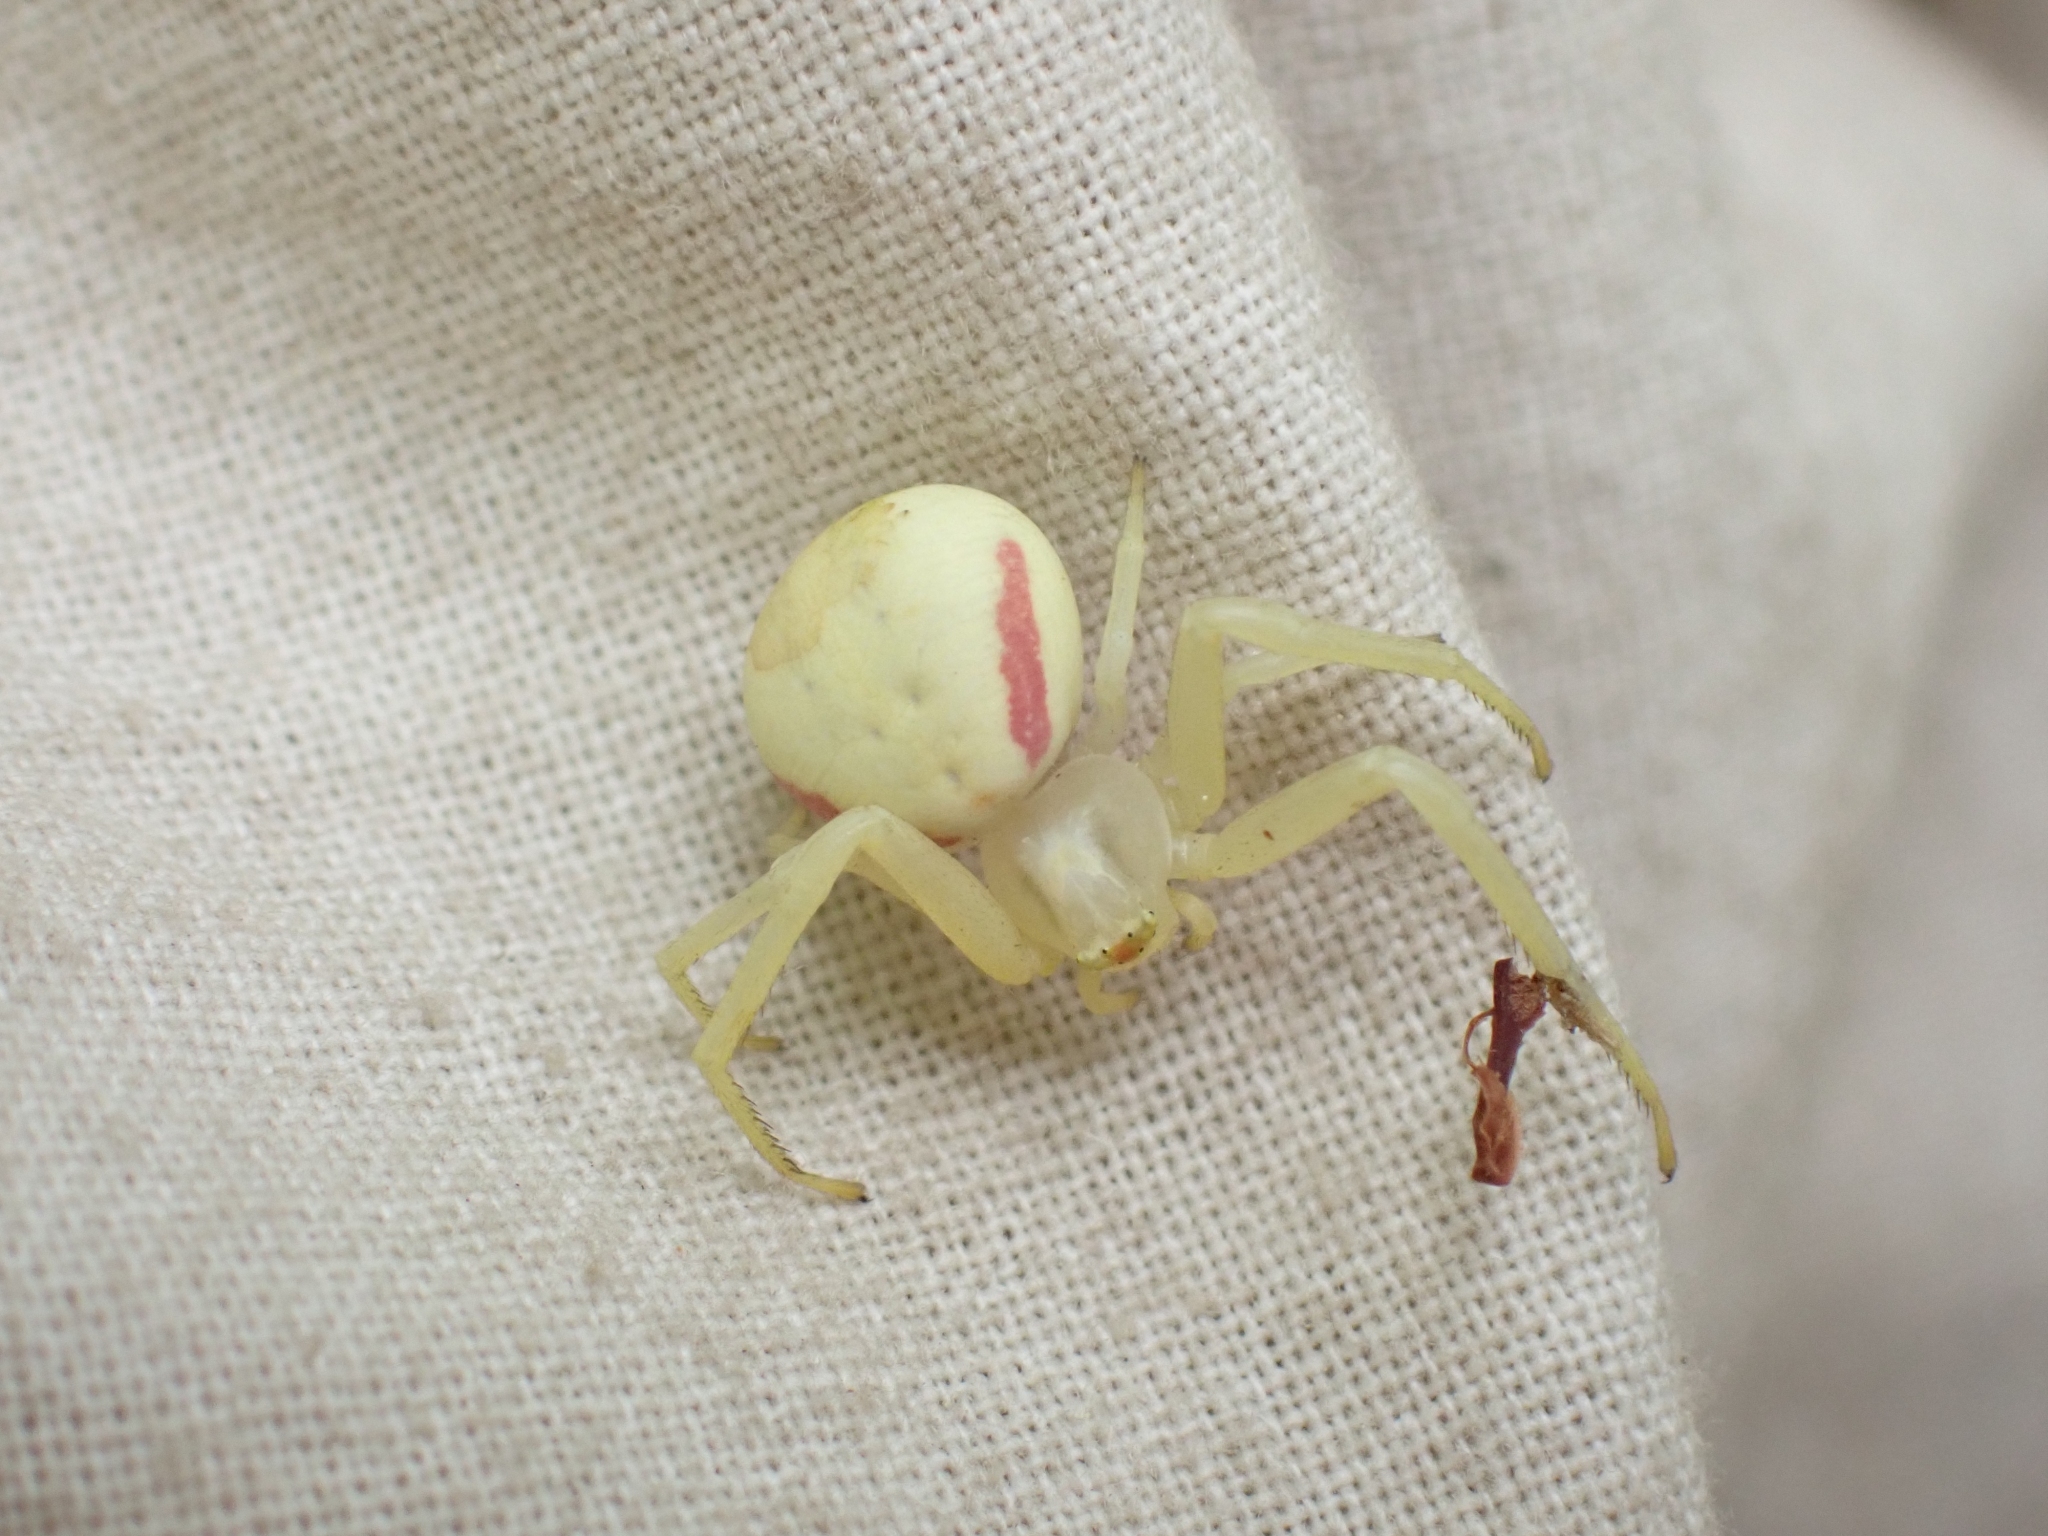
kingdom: Animalia
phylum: Arthropoda
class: Arachnida
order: Araneae
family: Thomisidae
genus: Misumena
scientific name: Misumena vatia
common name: Goldenrod crab spider
